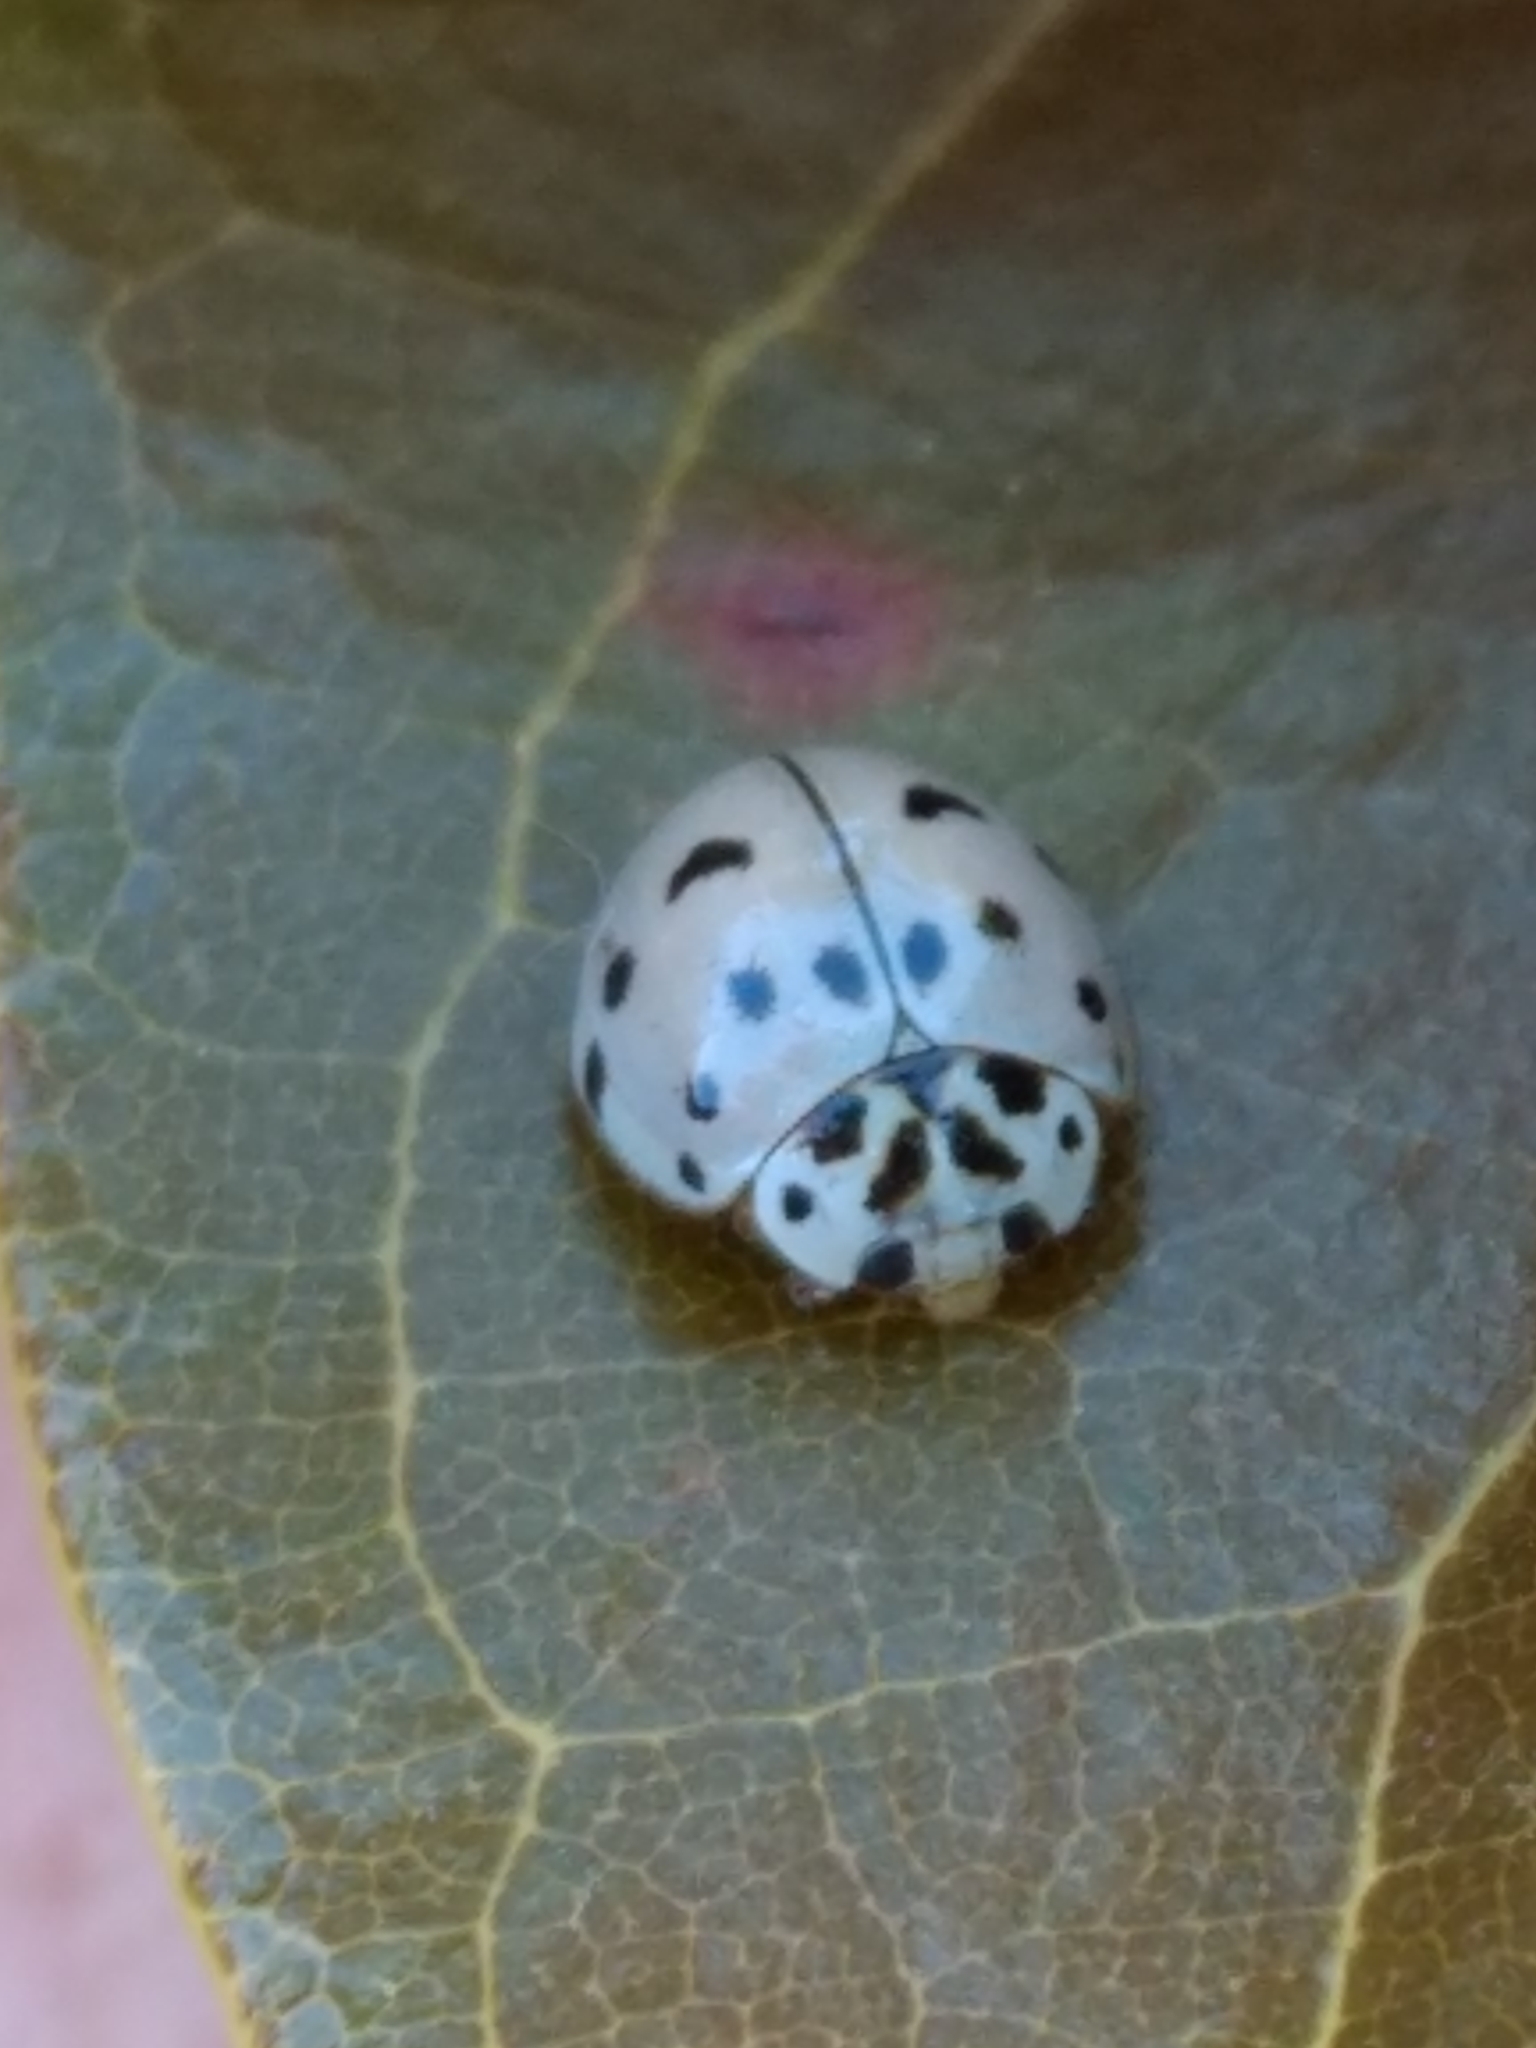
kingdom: Animalia
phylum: Arthropoda
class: Insecta
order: Coleoptera
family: Coccinellidae
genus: Olla
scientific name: Olla v-nigrum
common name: Ashy gray lady beetle
